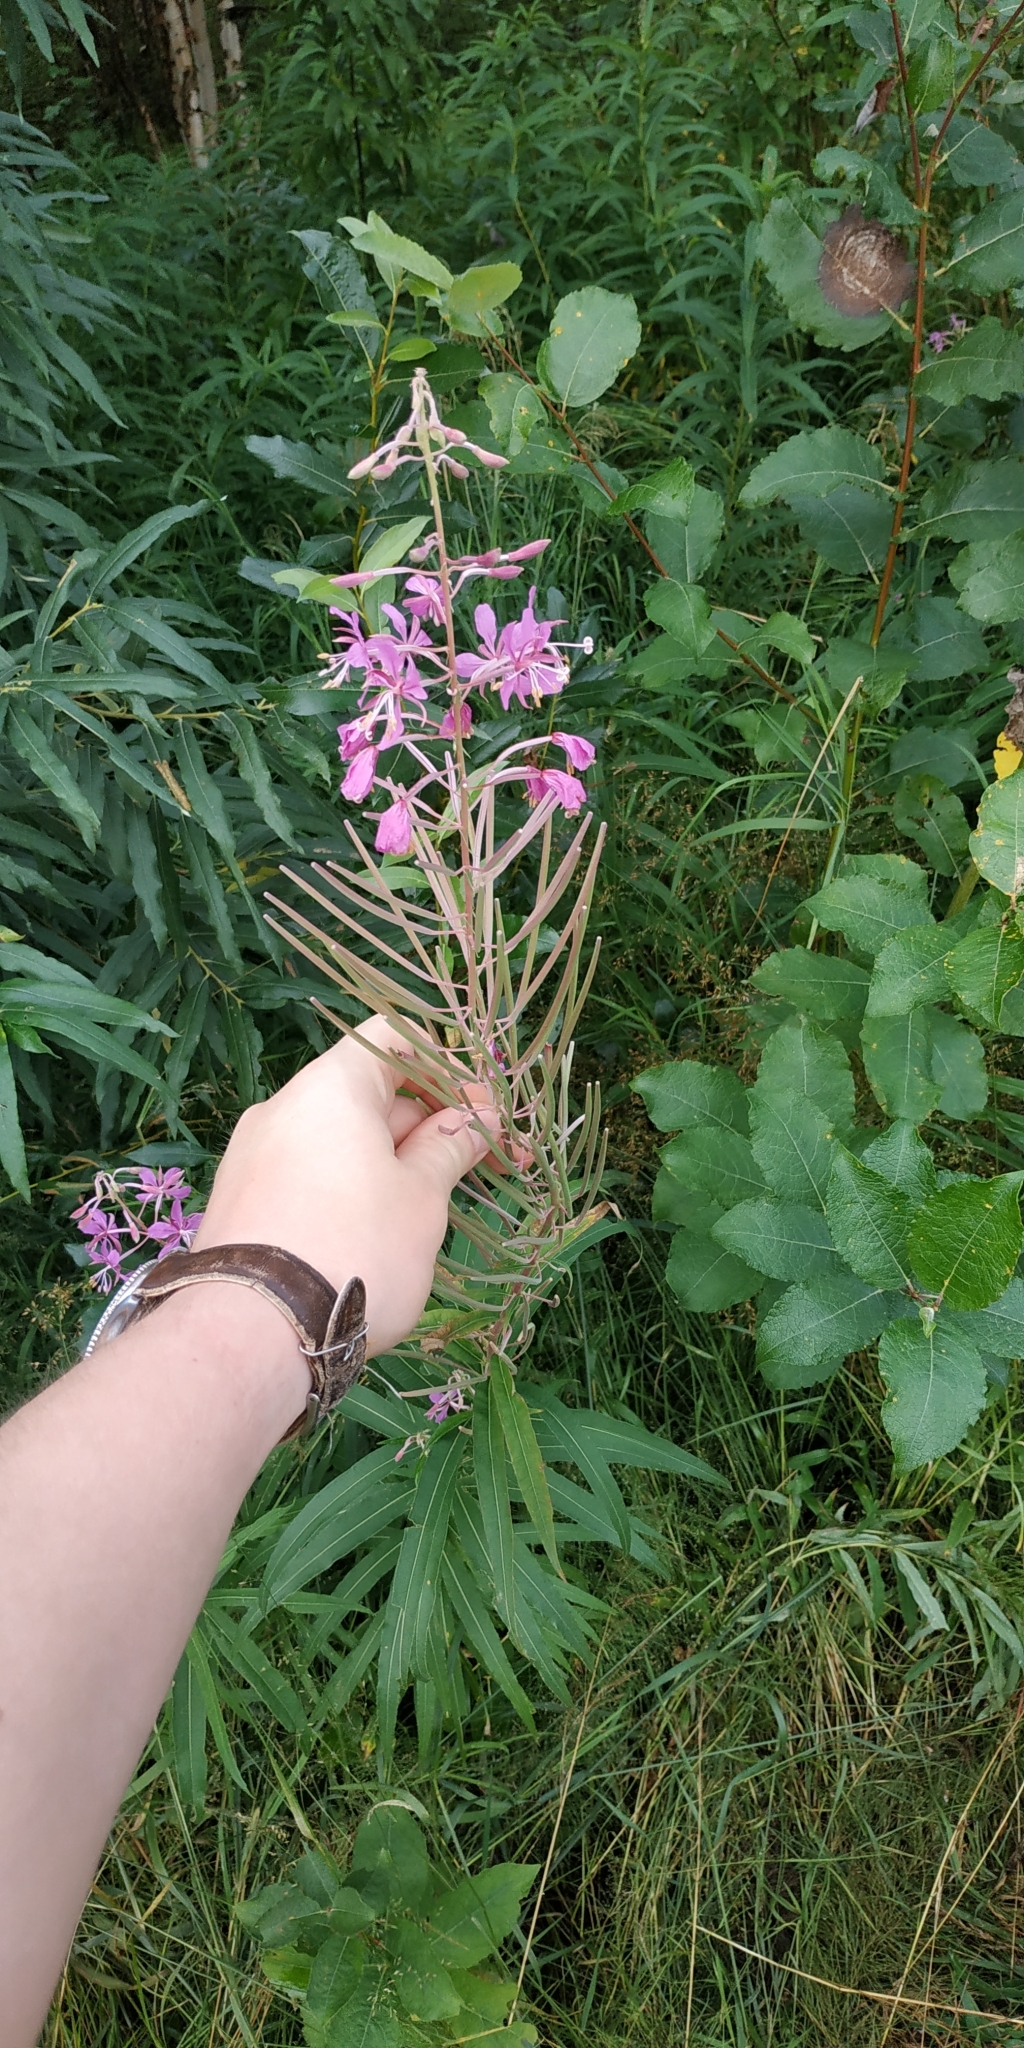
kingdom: Plantae
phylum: Tracheophyta
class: Magnoliopsida
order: Myrtales
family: Onagraceae
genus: Chamaenerion
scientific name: Chamaenerion angustifolium
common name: Fireweed
